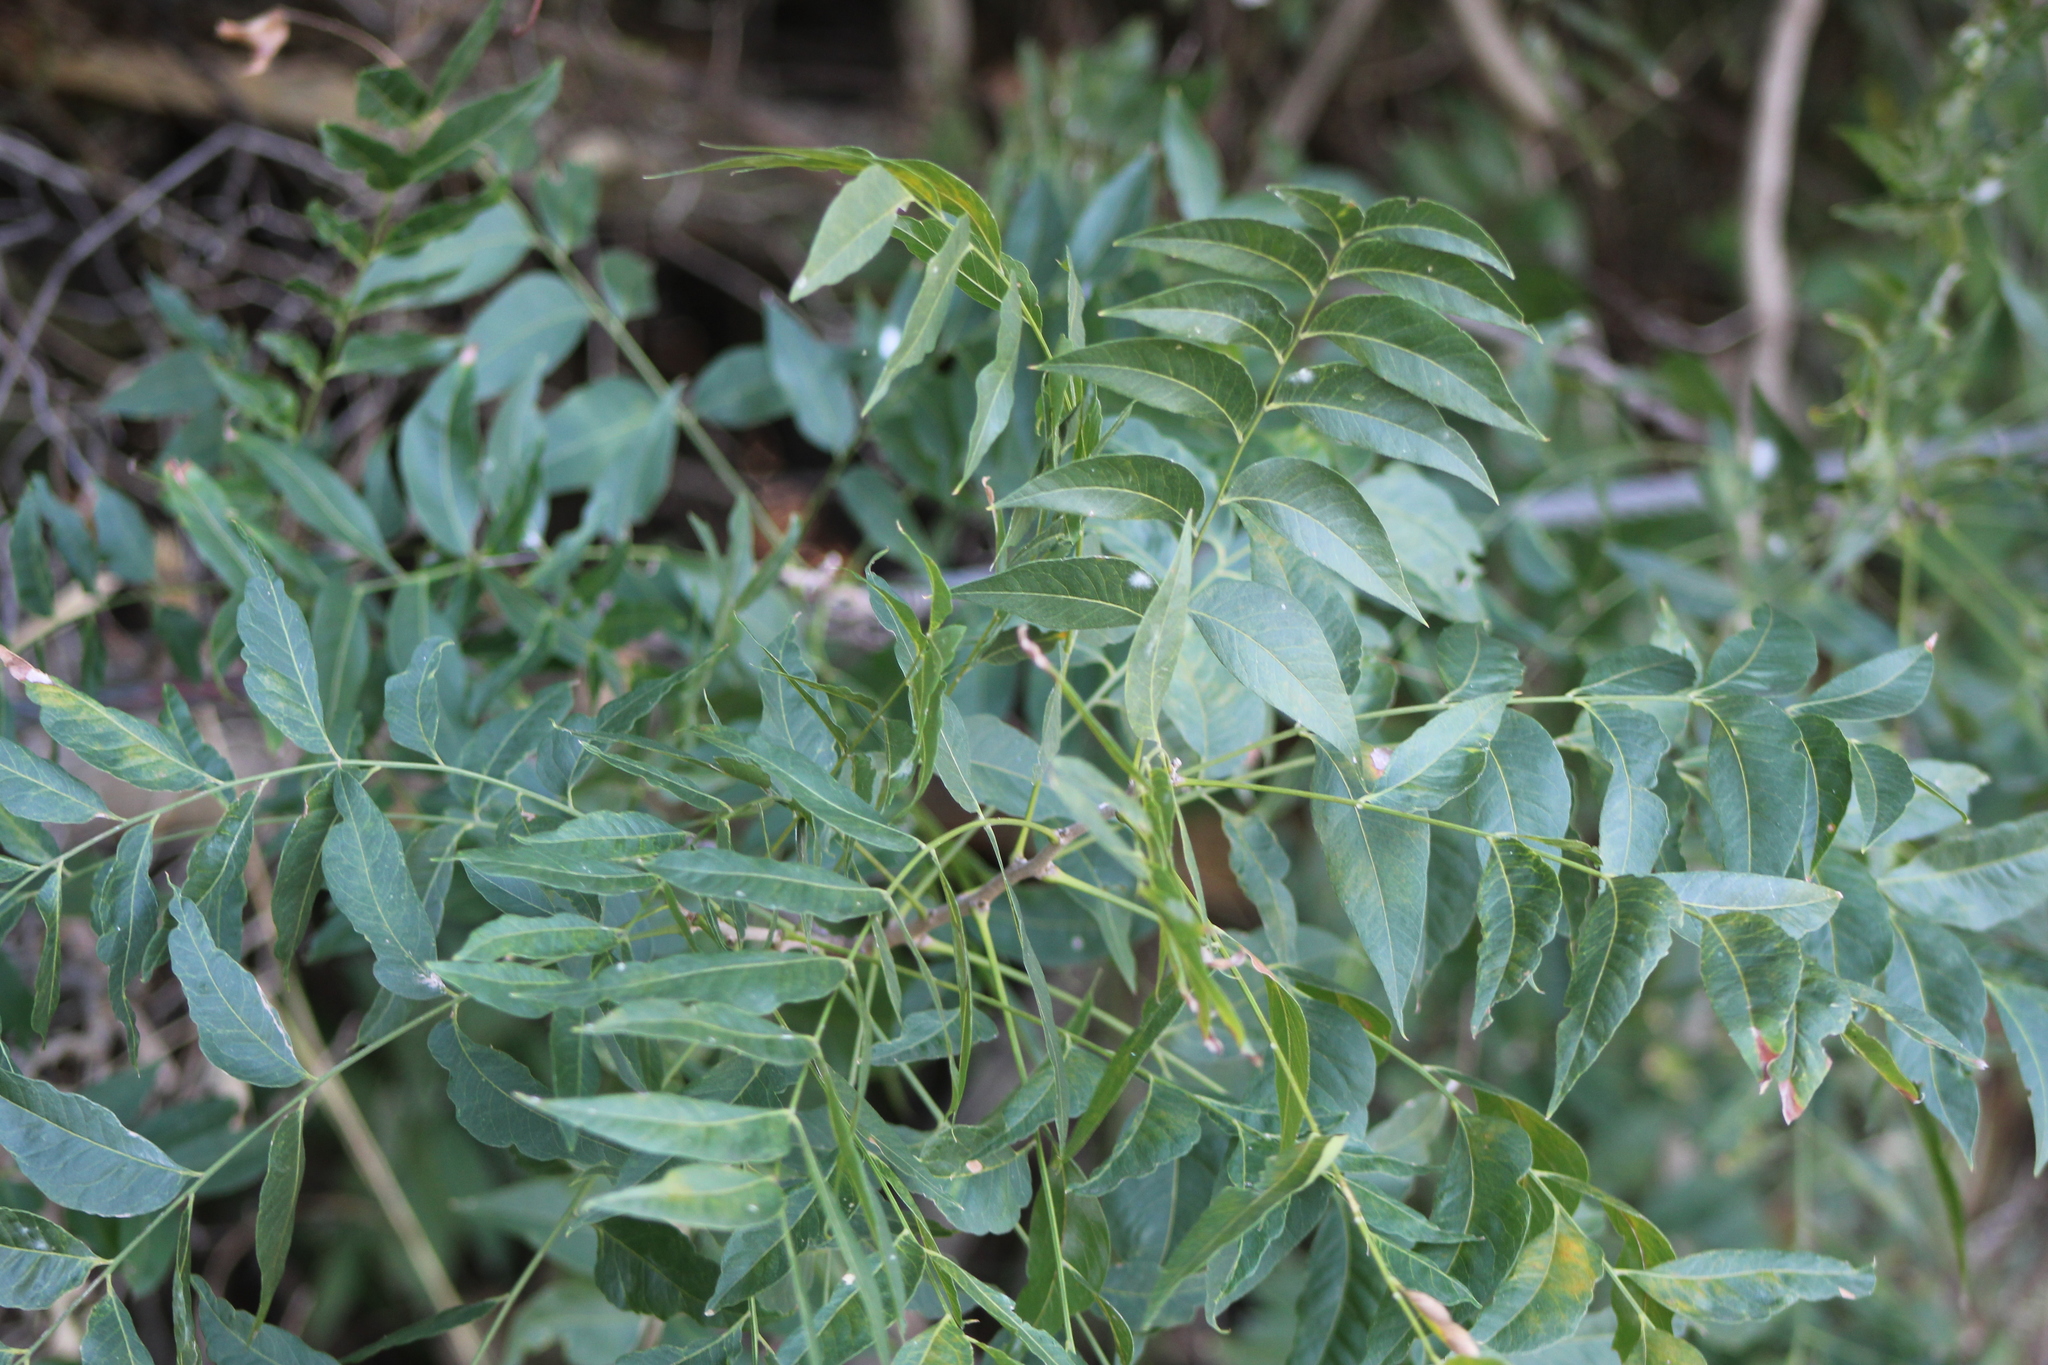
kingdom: Plantae
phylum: Tracheophyta
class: Magnoliopsida
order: Sapindales
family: Sapindaceae
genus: Sapindus
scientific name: Sapindus drummondii
